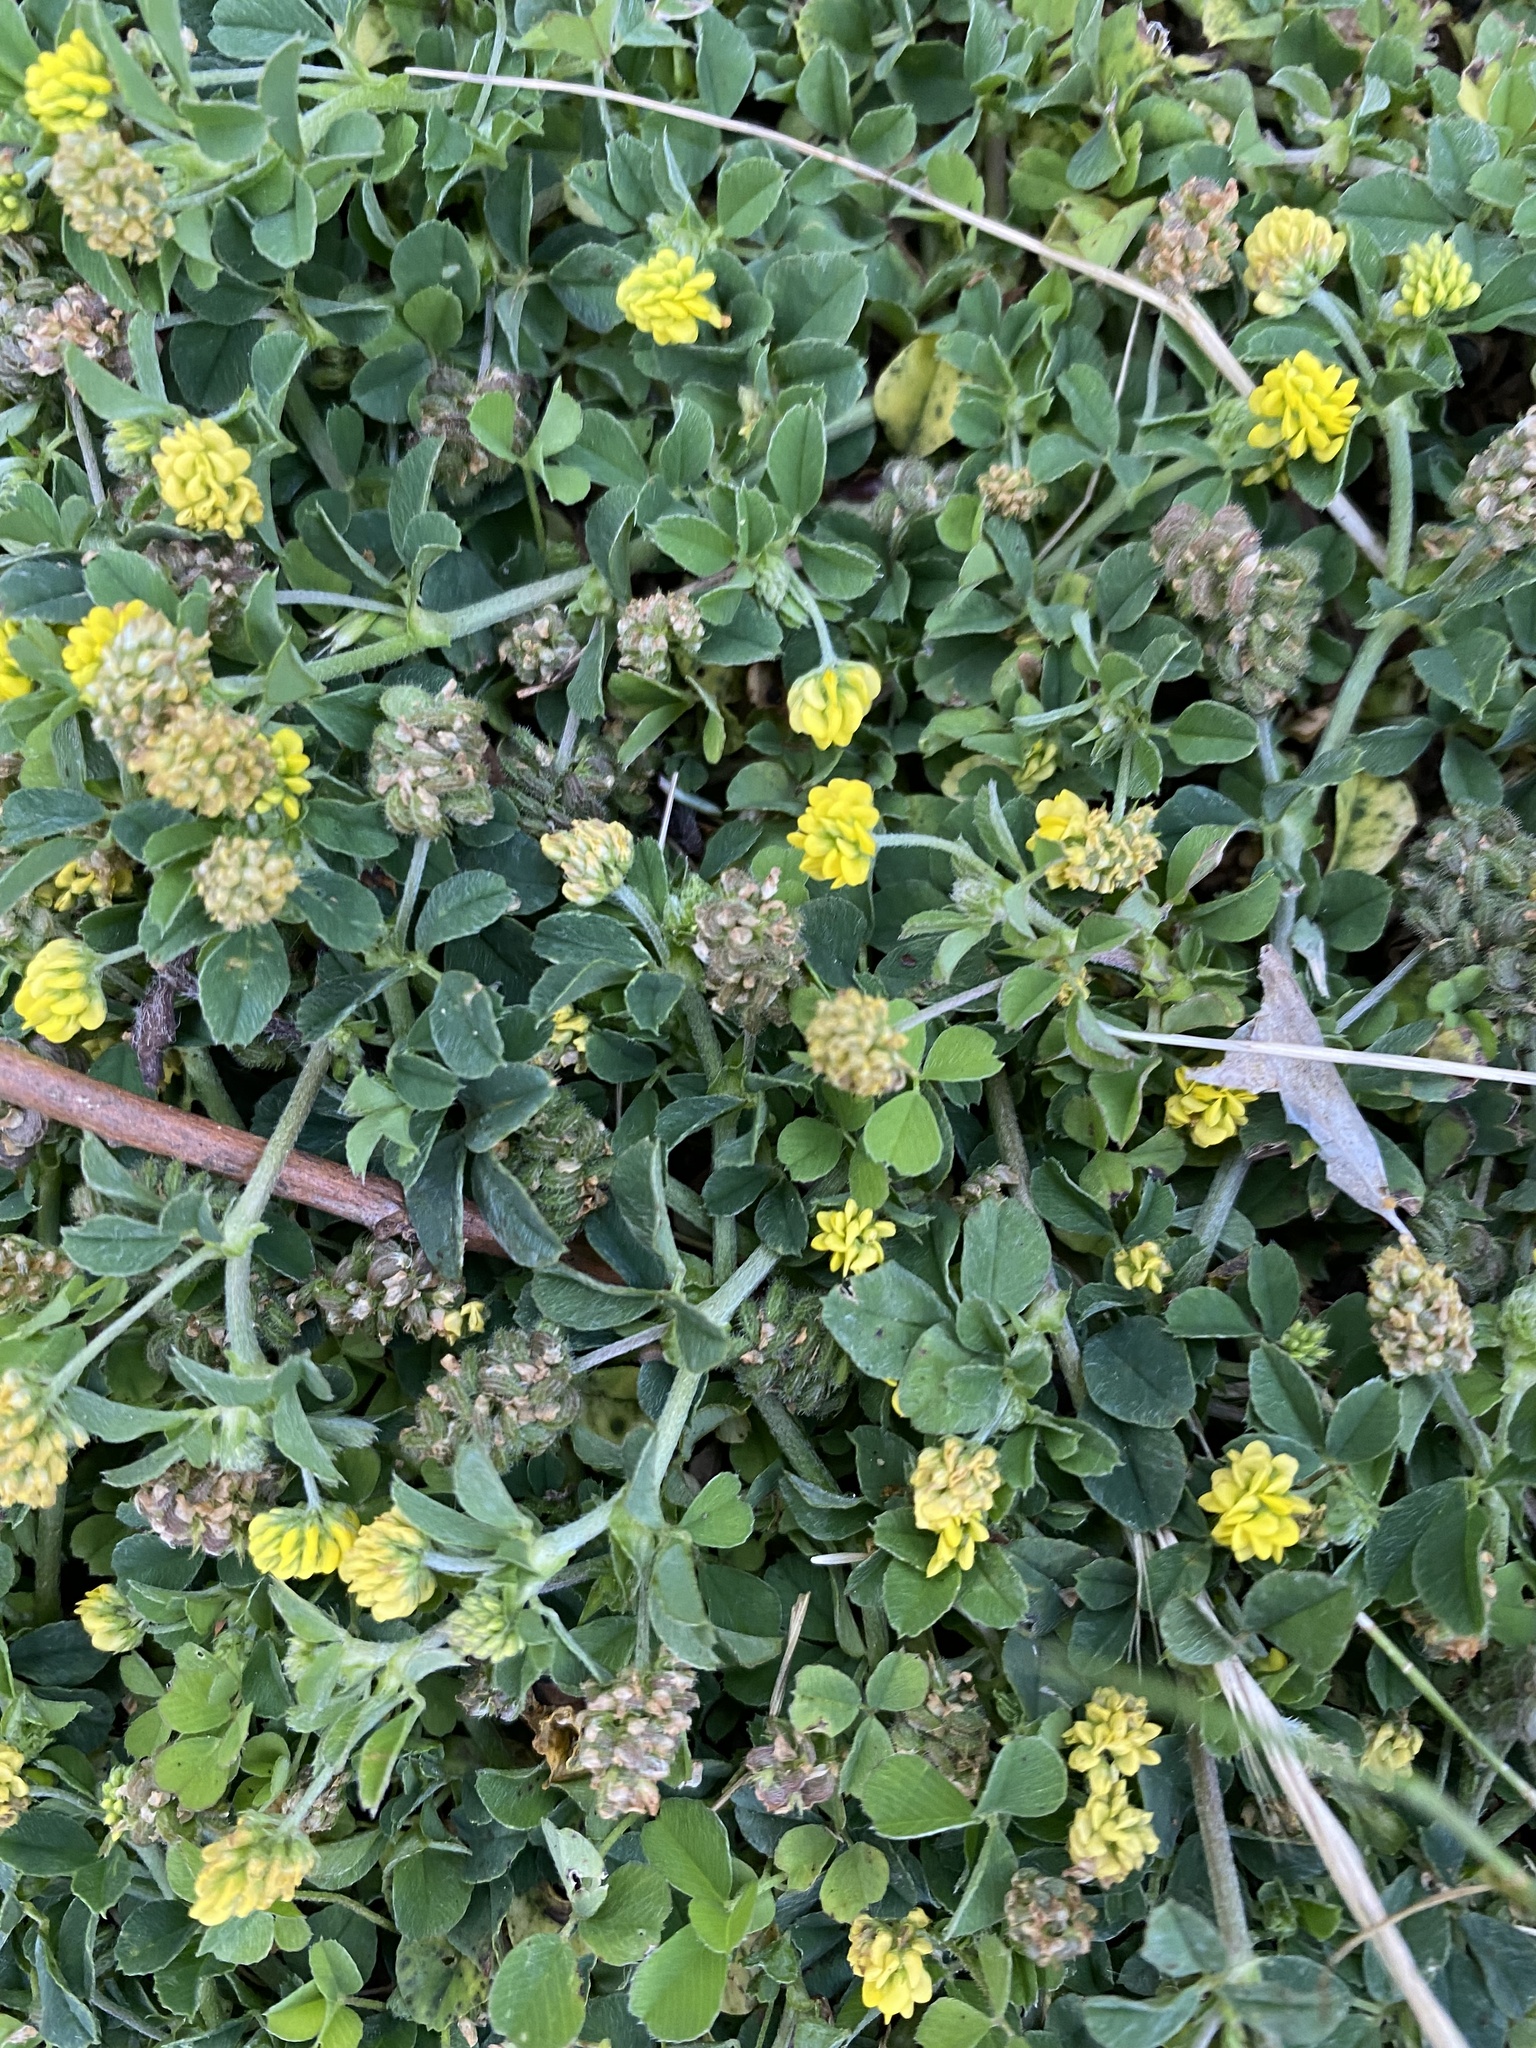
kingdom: Plantae
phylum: Tracheophyta
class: Magnoliopsida
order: Fabales
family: Fabaceae
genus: Medicago
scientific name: Medicago lupulina
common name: Black medick
